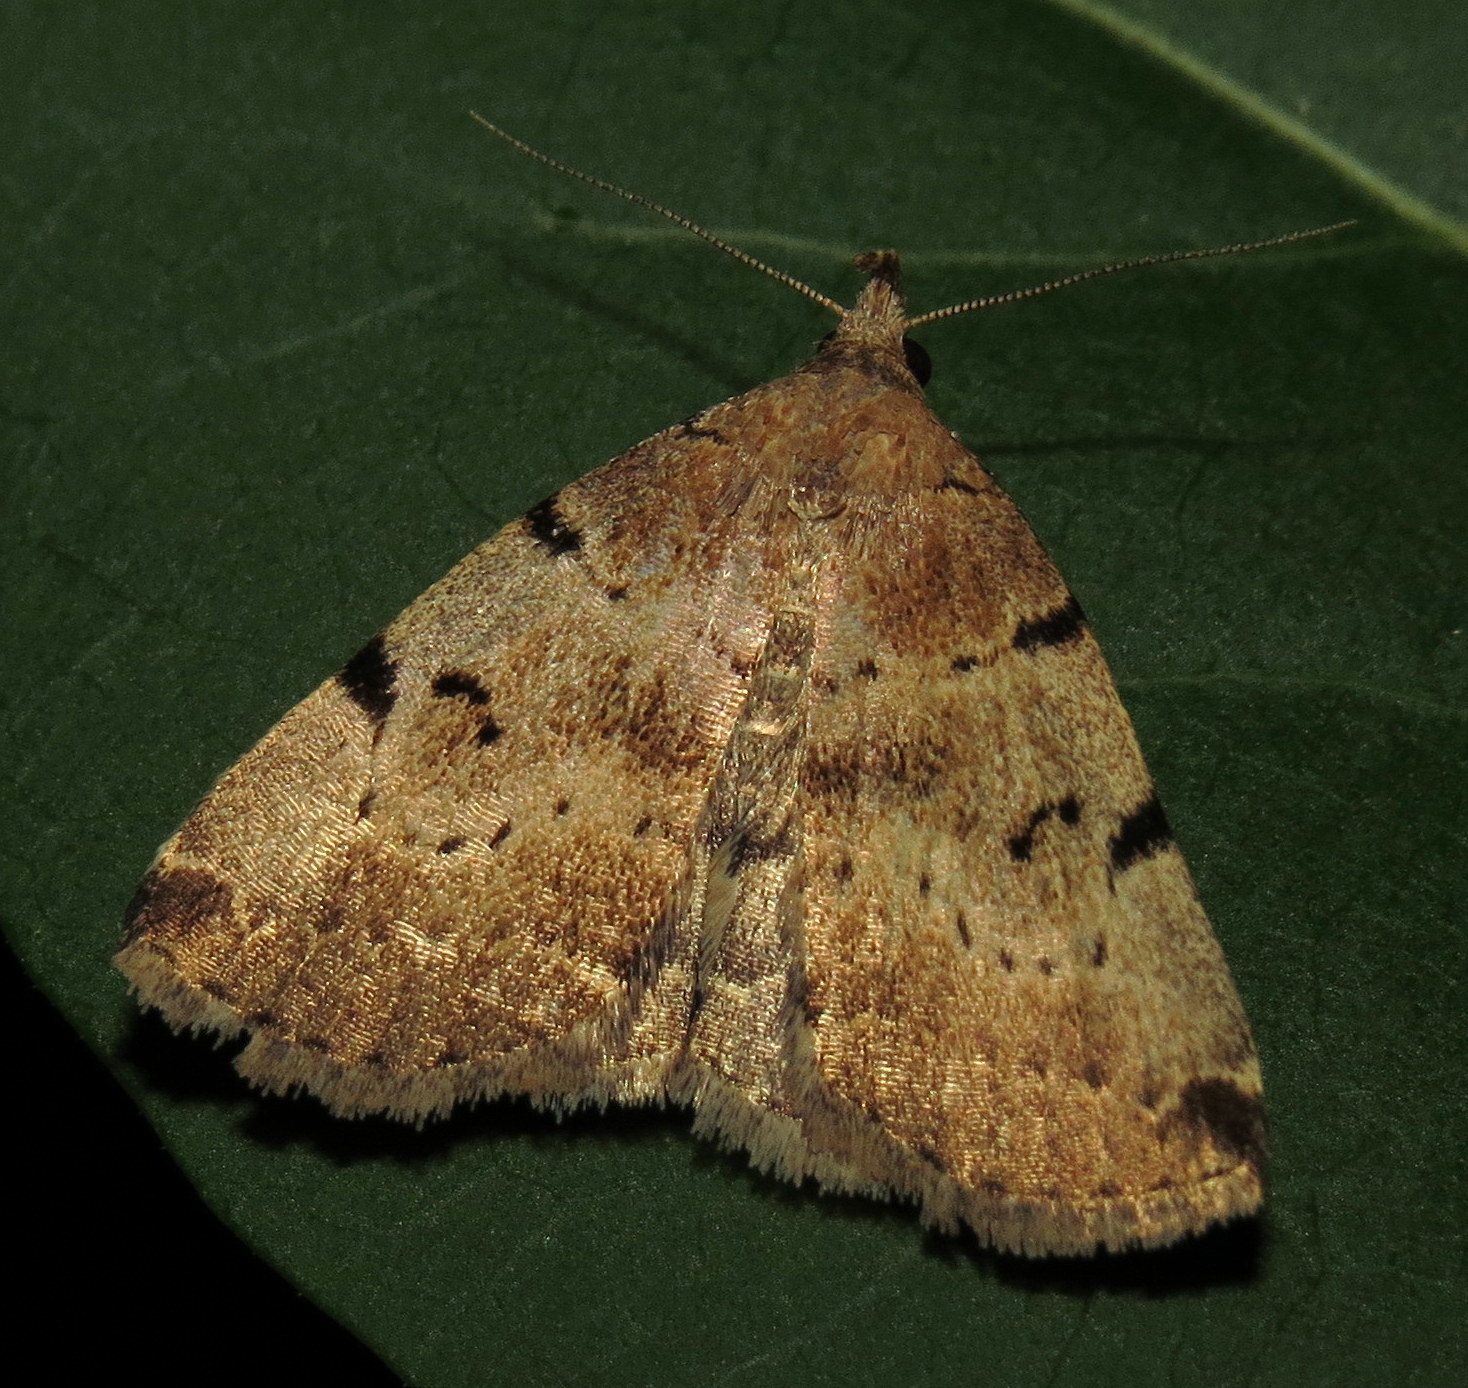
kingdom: Animalia
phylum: Arthropoda
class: Insecta
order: Lepidoptera
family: Erebidae
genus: Zanclognatha
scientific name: Zanclognatha lituralis
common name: Lettered fan-foot
